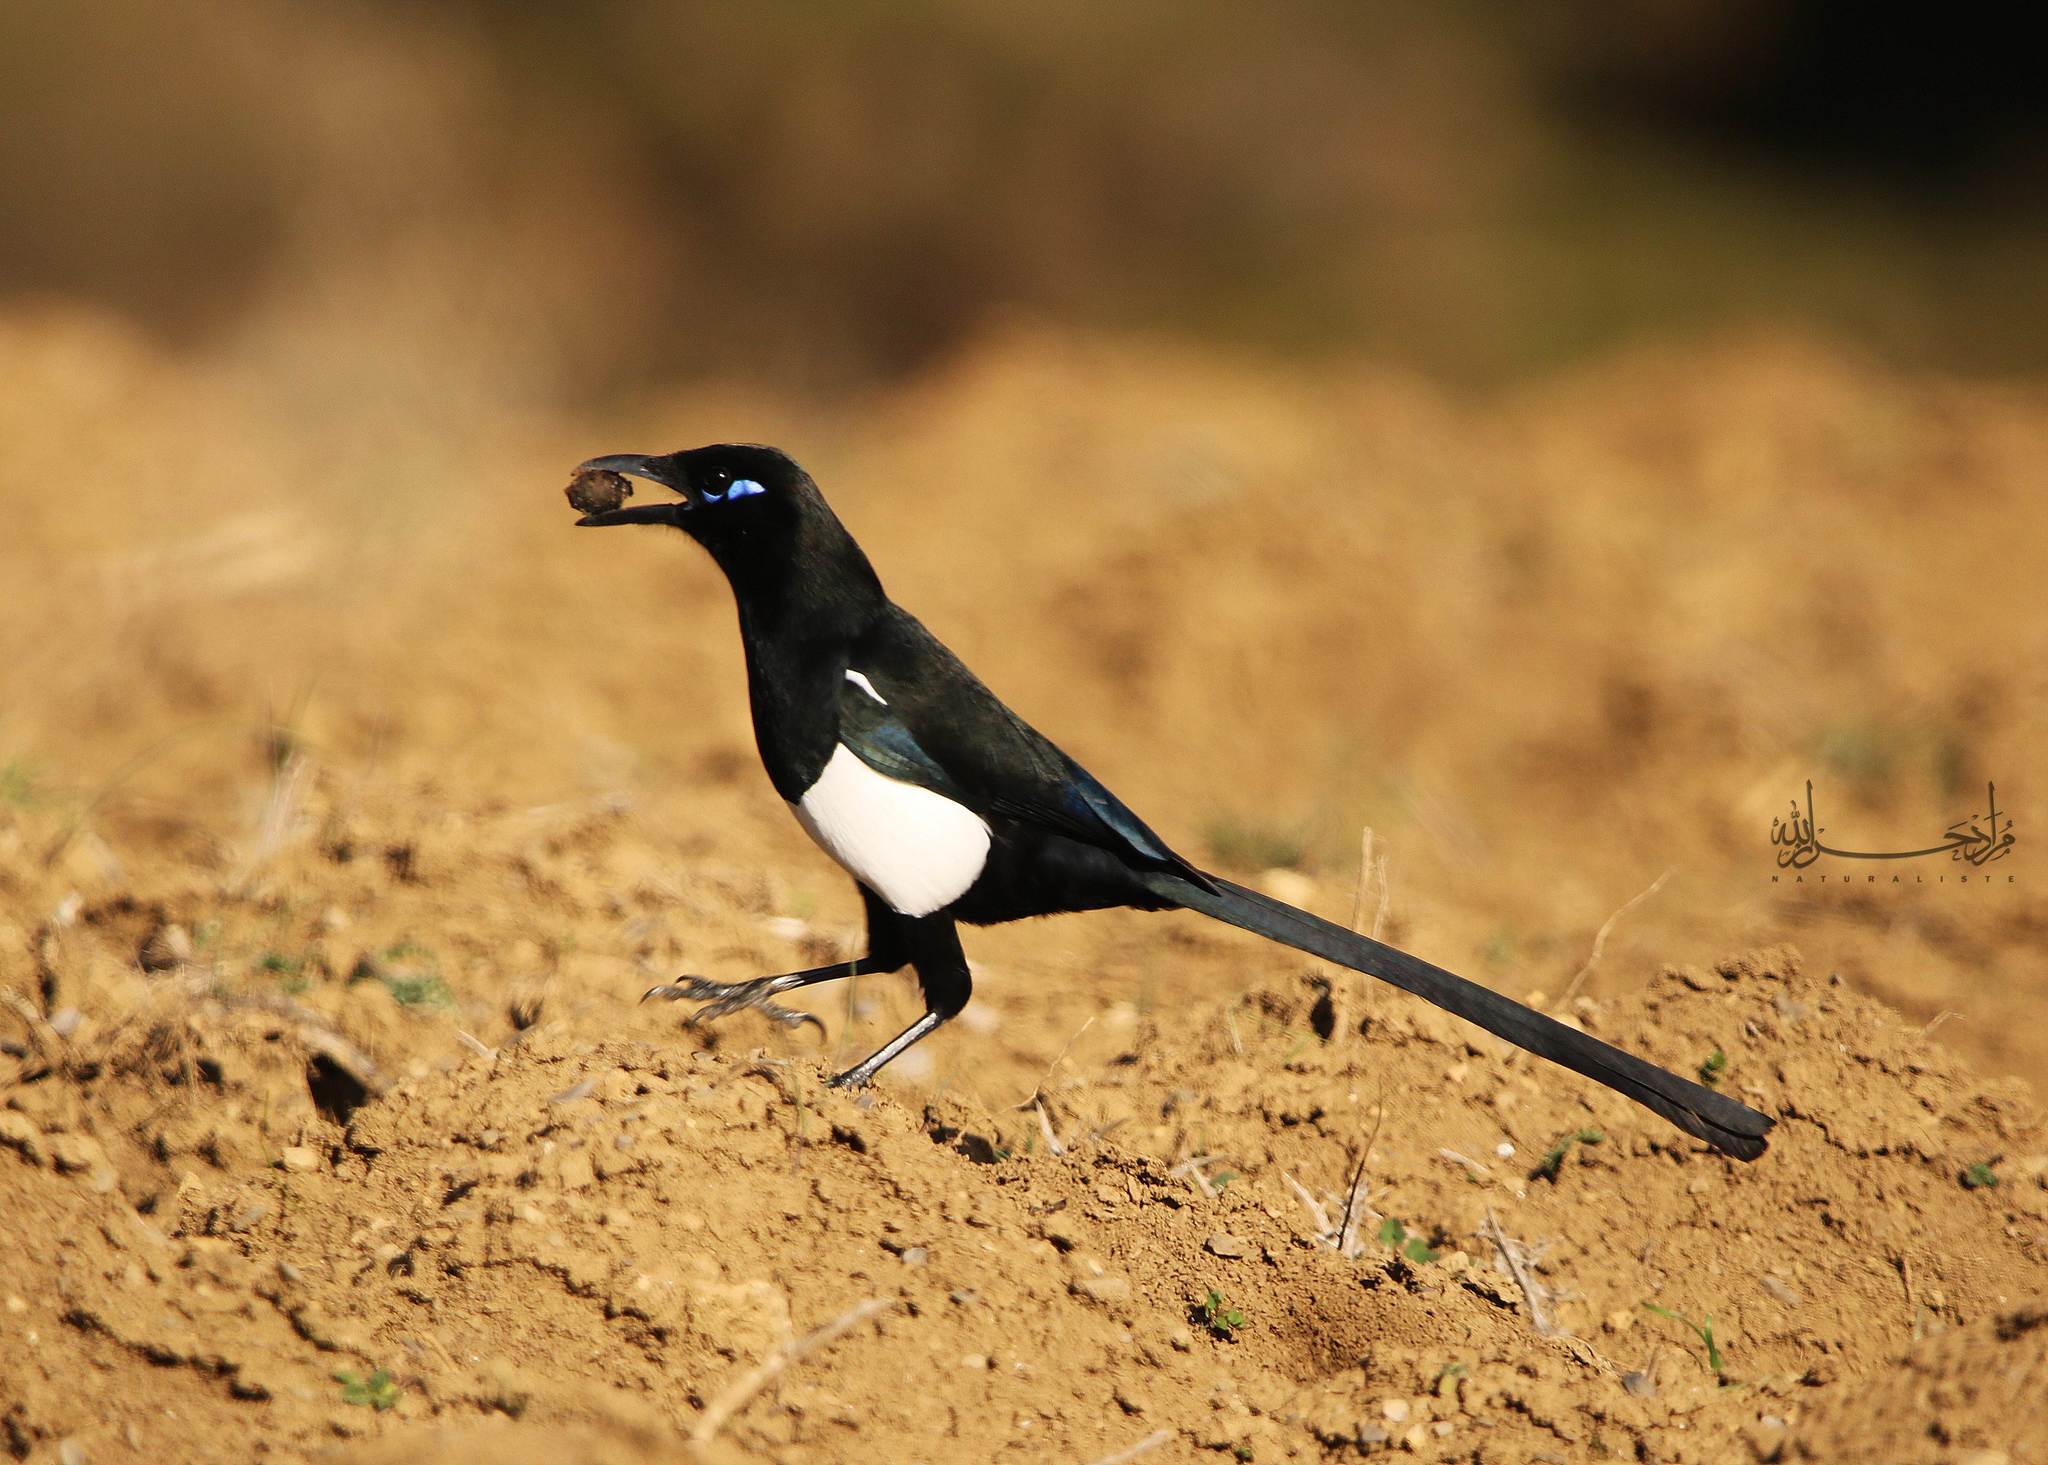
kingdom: Animalia
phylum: Chordata
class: Aves
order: Passeriformes
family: Corvidae
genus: Pica
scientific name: Pica mauritanica
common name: Maghreb magpie
